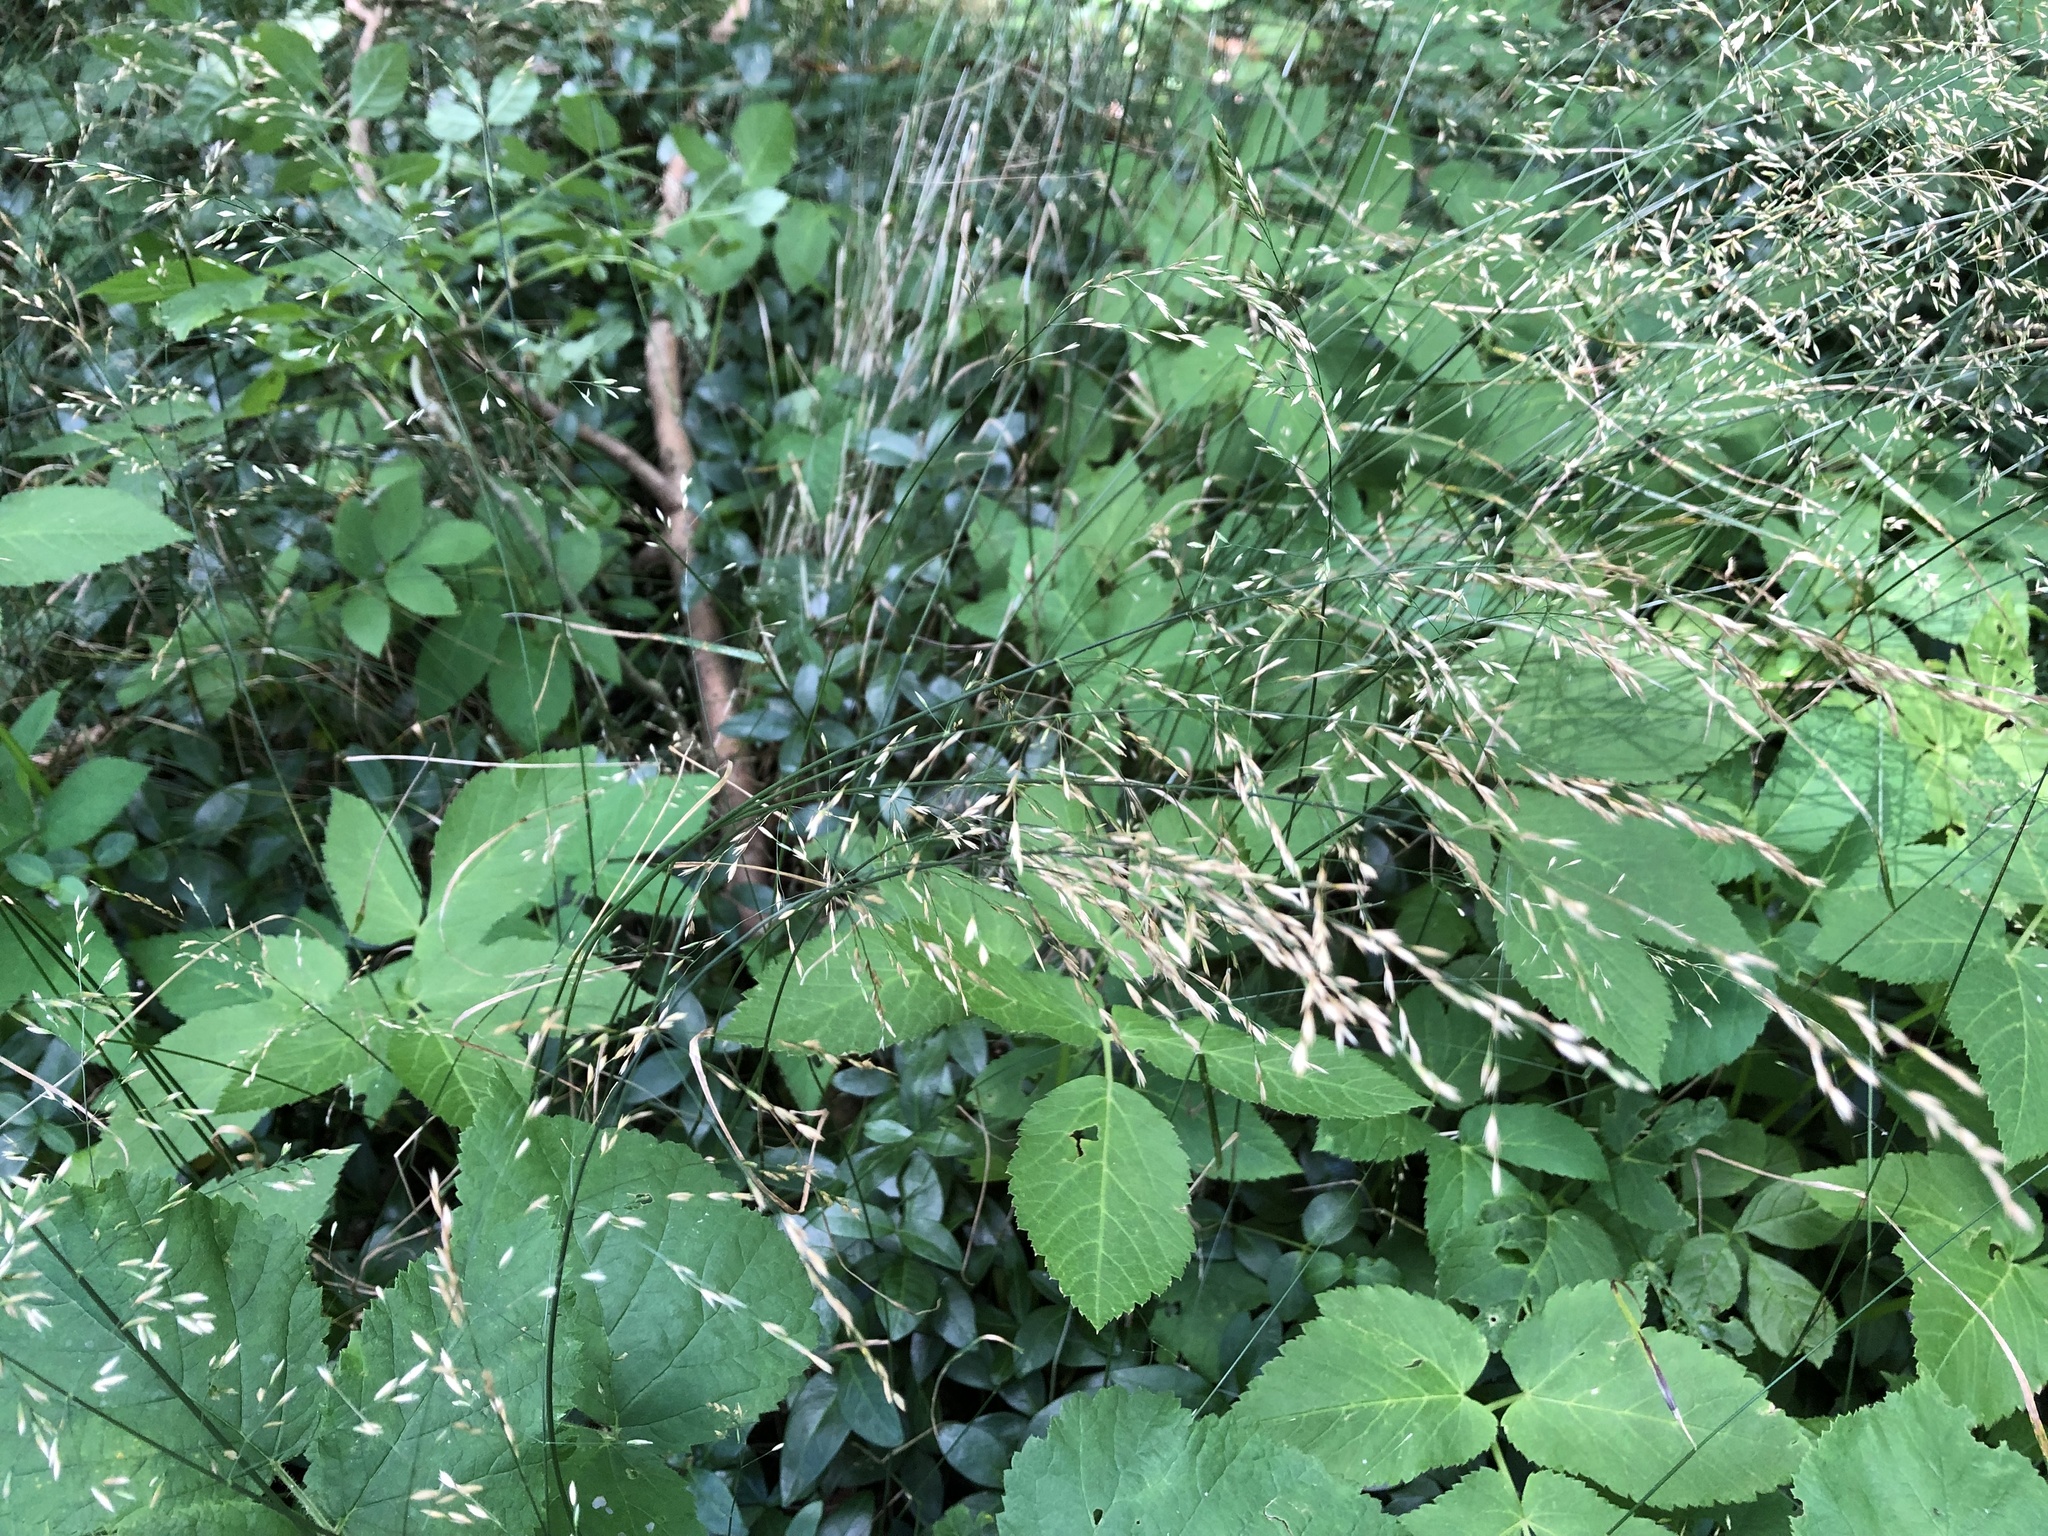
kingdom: Plantae
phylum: Tracheophyta
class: Liliopsida
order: Poales
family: Poaceae
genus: Poa
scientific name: Poa nemoralis
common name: Wood bluegrass
